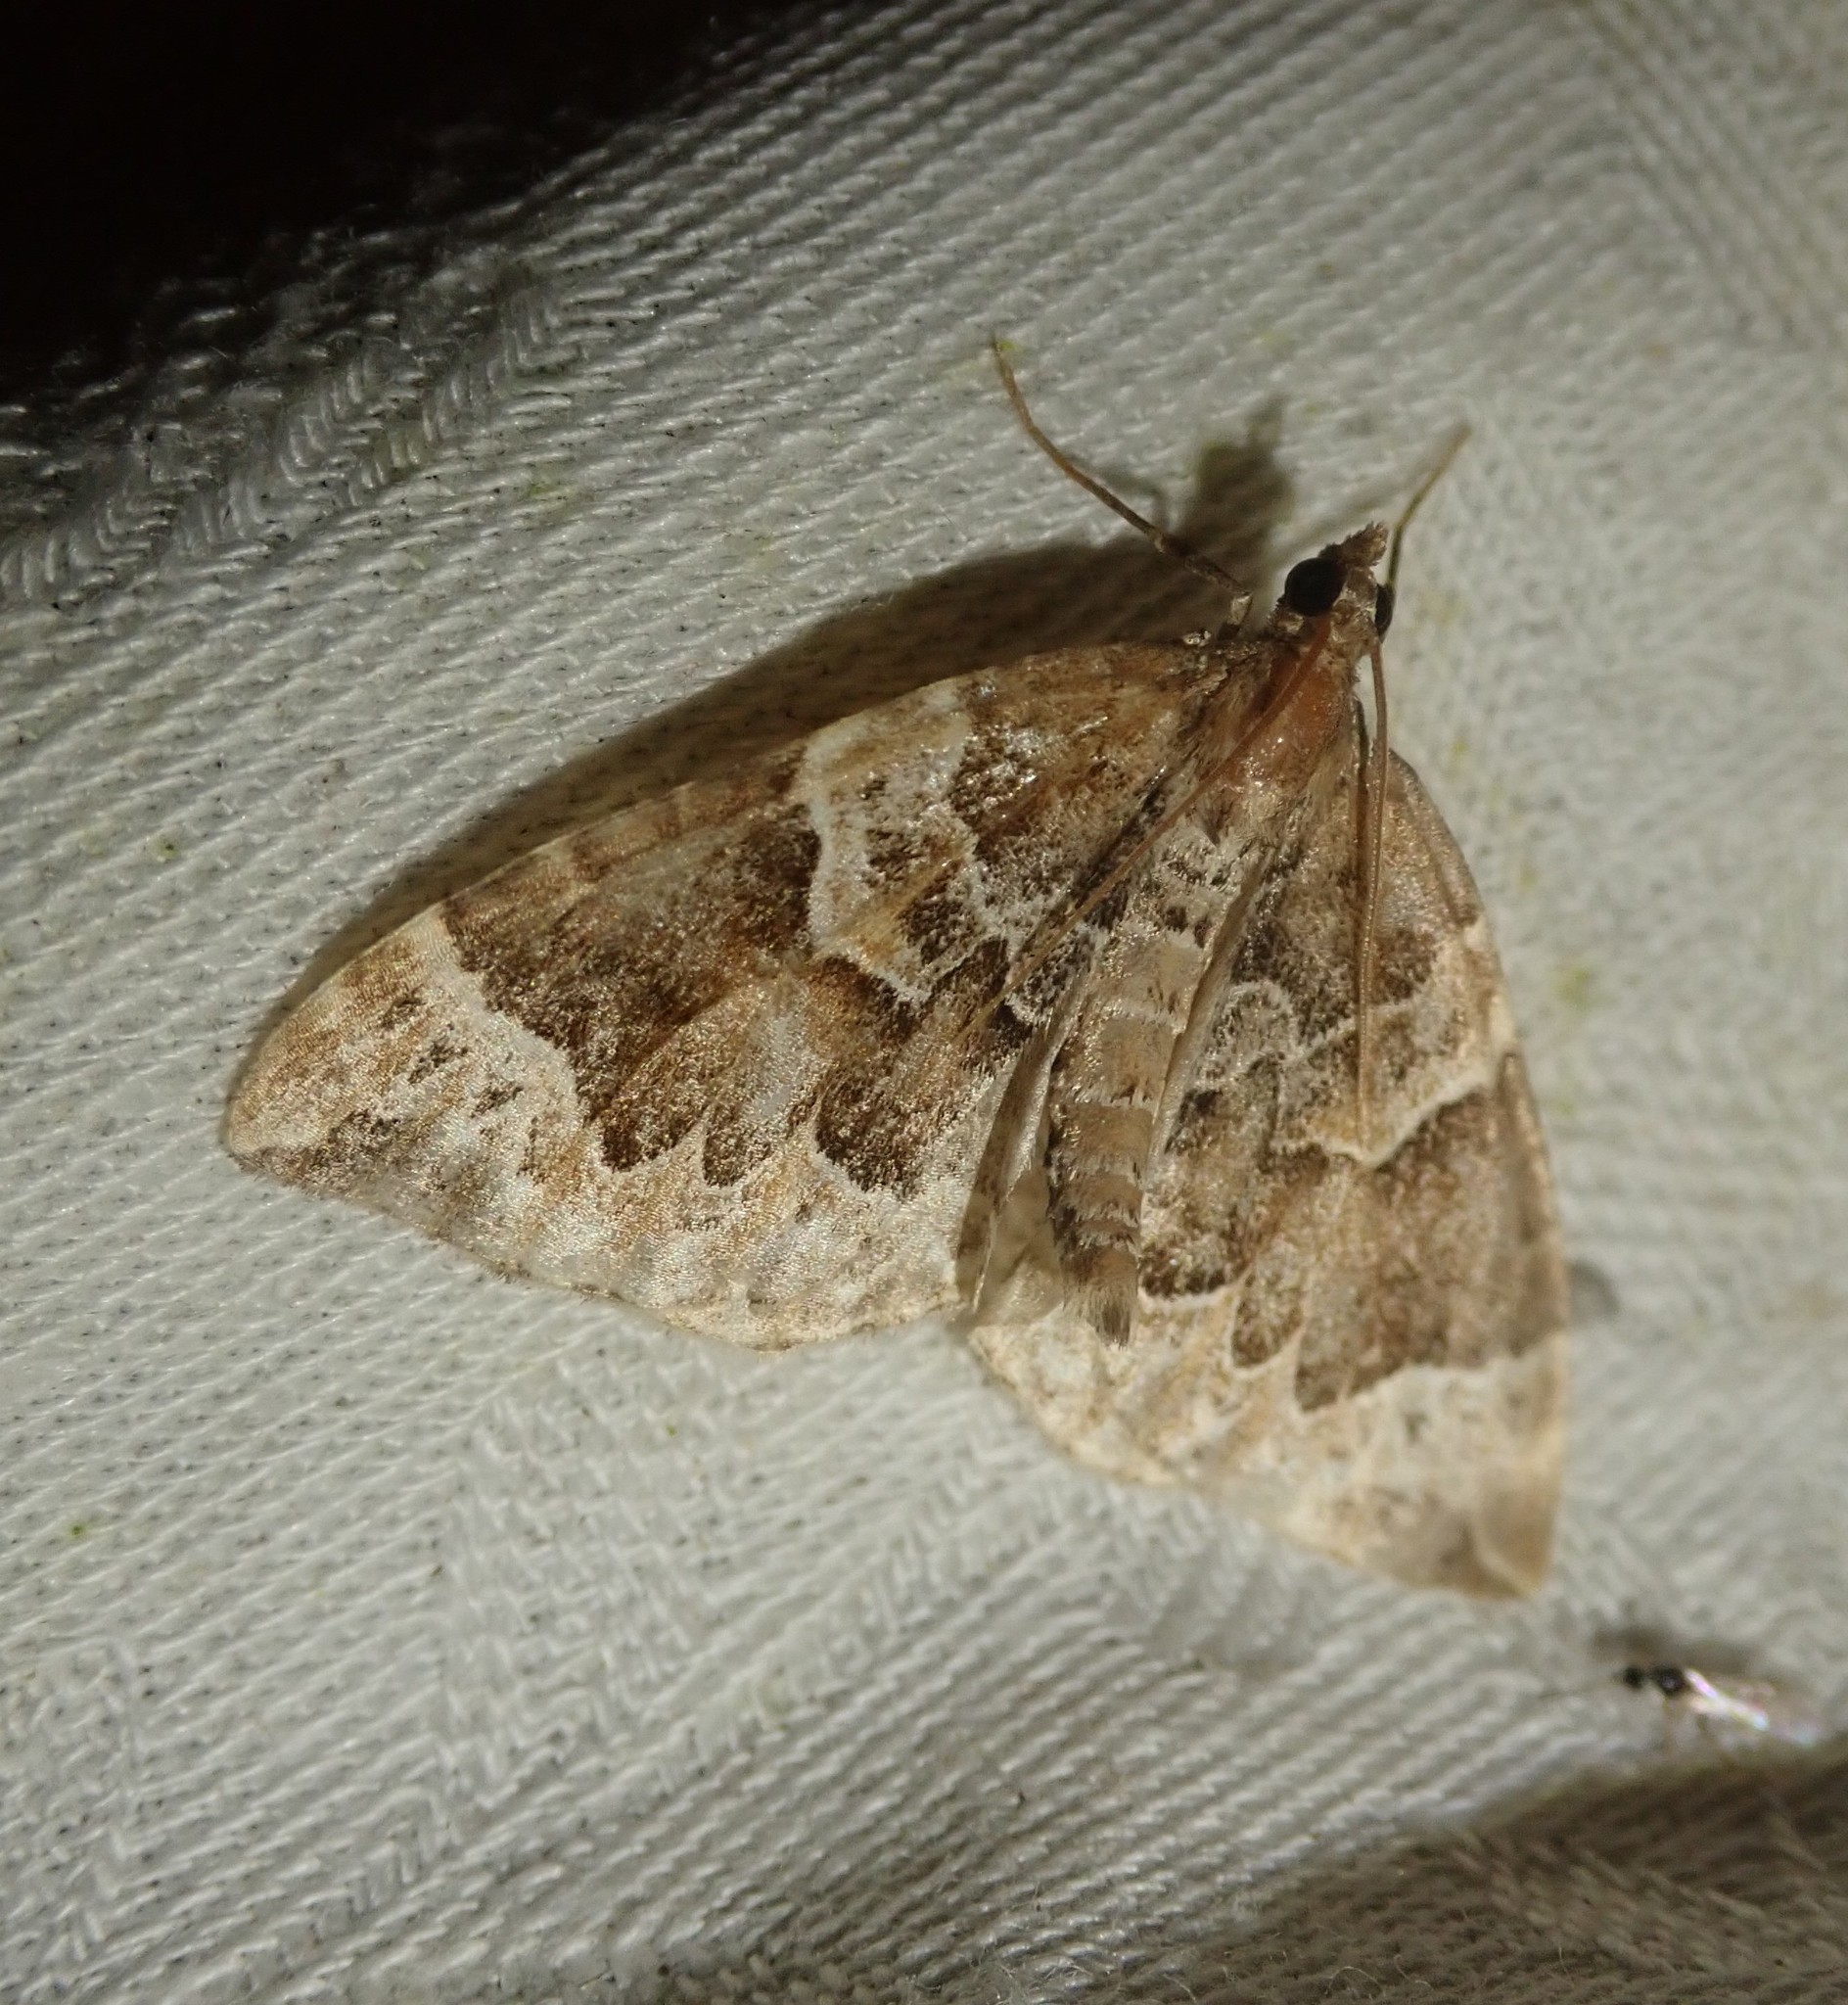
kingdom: Animalia
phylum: Arthropoda
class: Insecta
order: Lepidoptera
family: Geometridae
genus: Eulithis
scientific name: Eulithis prunata
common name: Phoenix
